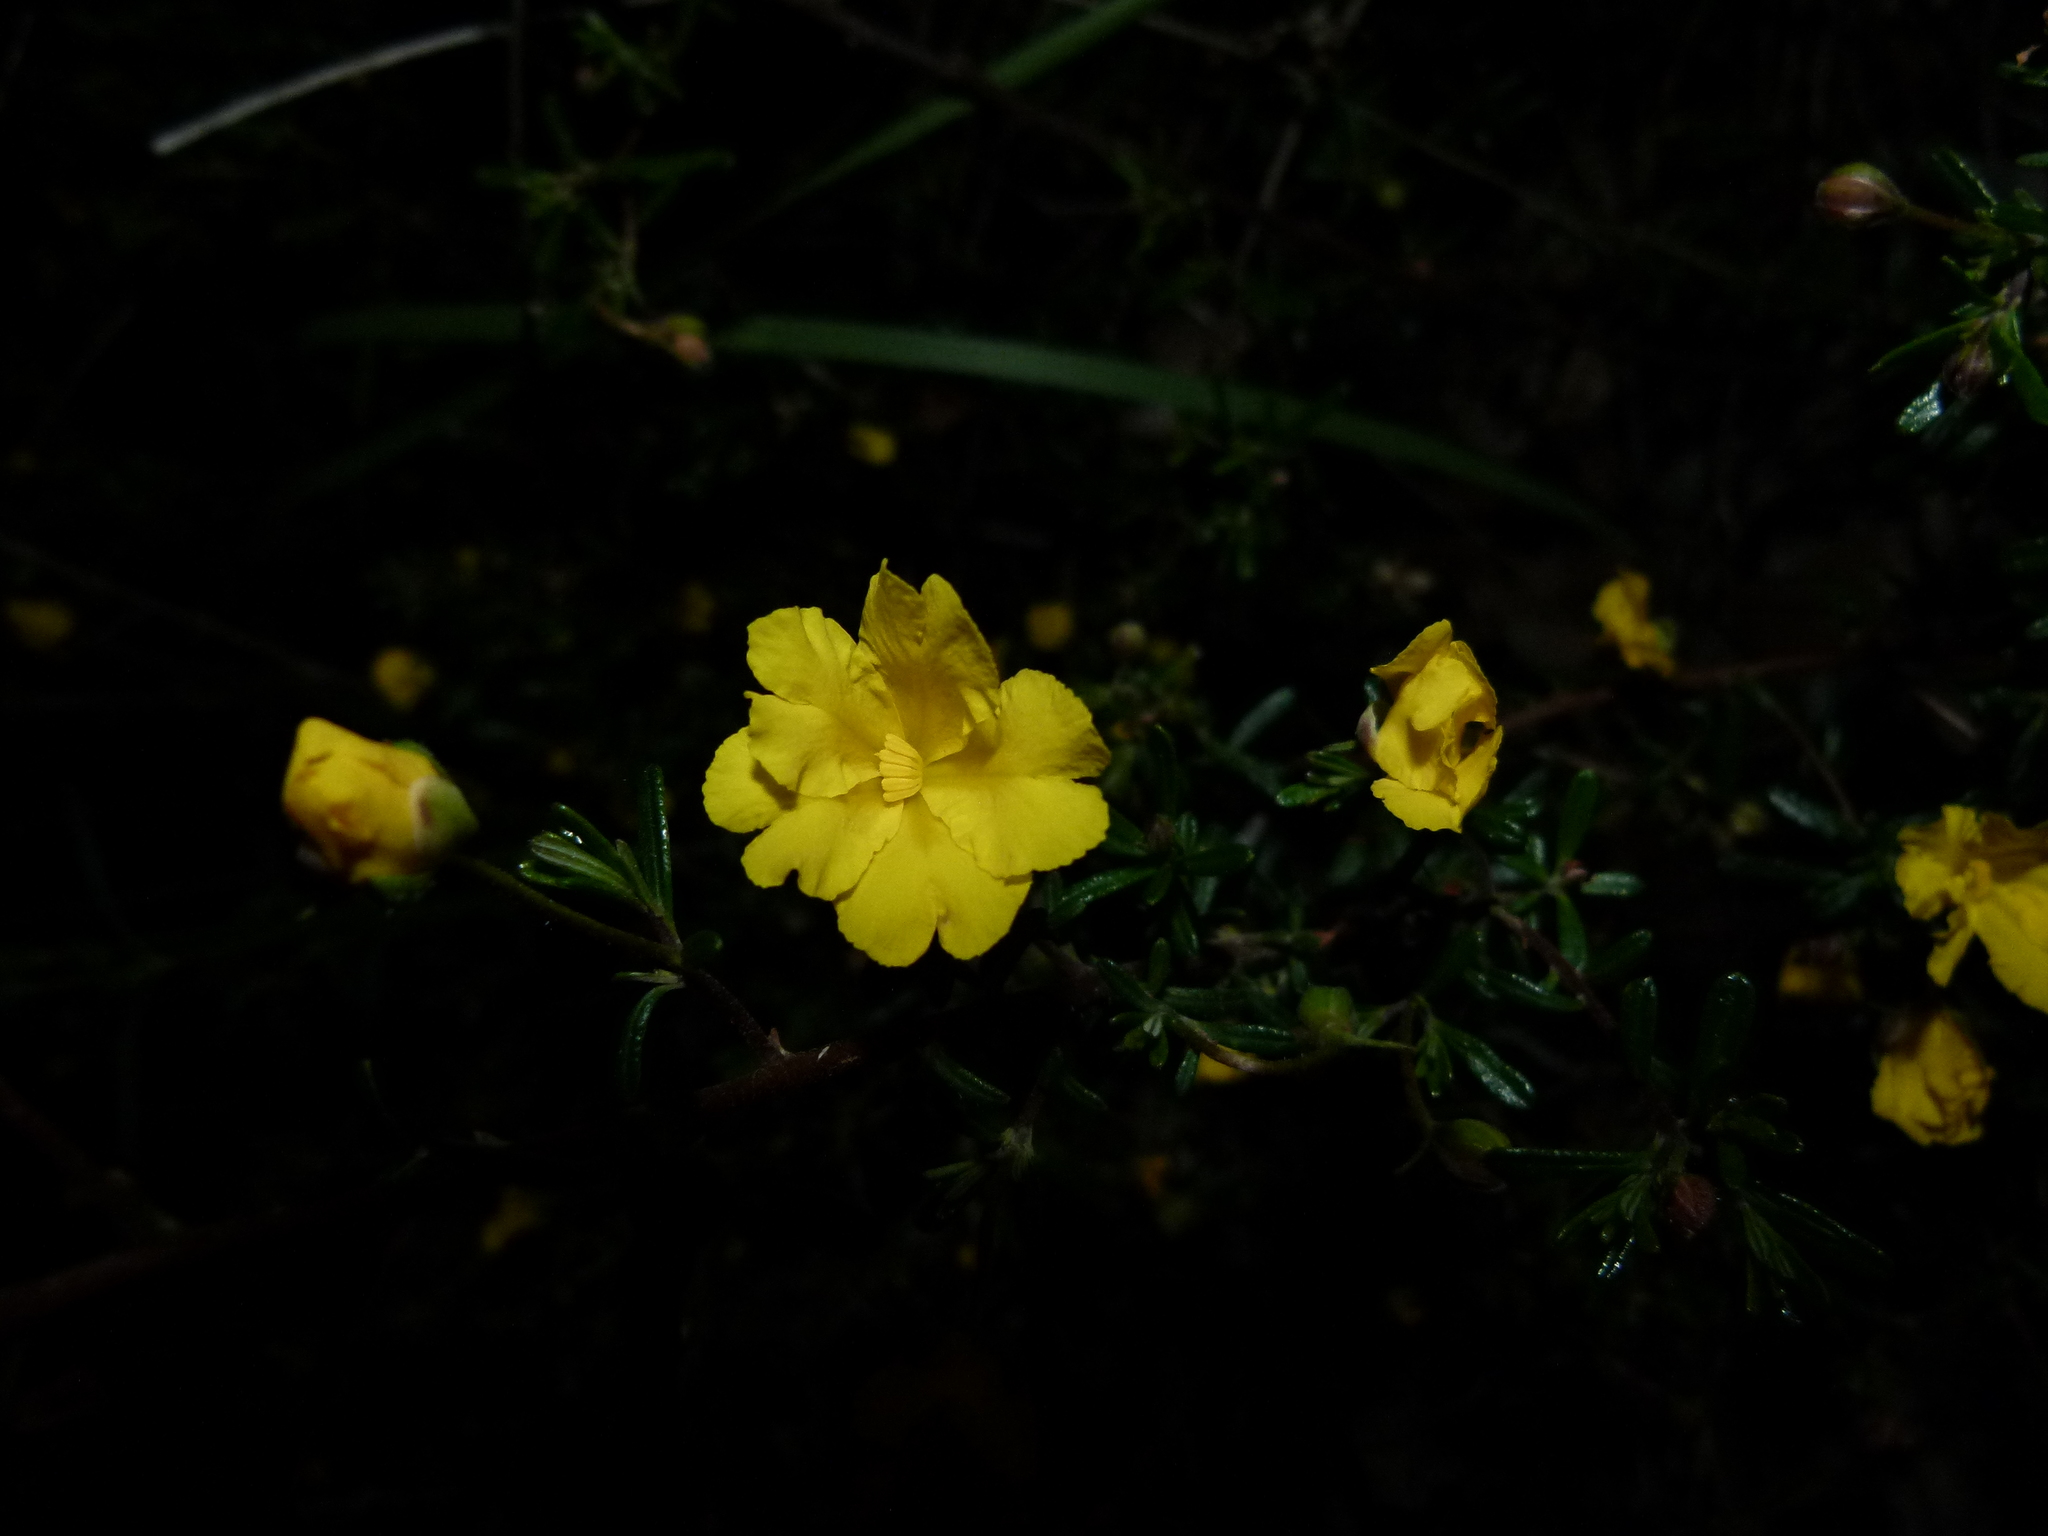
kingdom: Plantae
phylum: Tracheophyta
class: Magnoliopsida
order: Dilleniales
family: Dilleniaceae
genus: Hibbertia
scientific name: Hibbertia hypericoides
